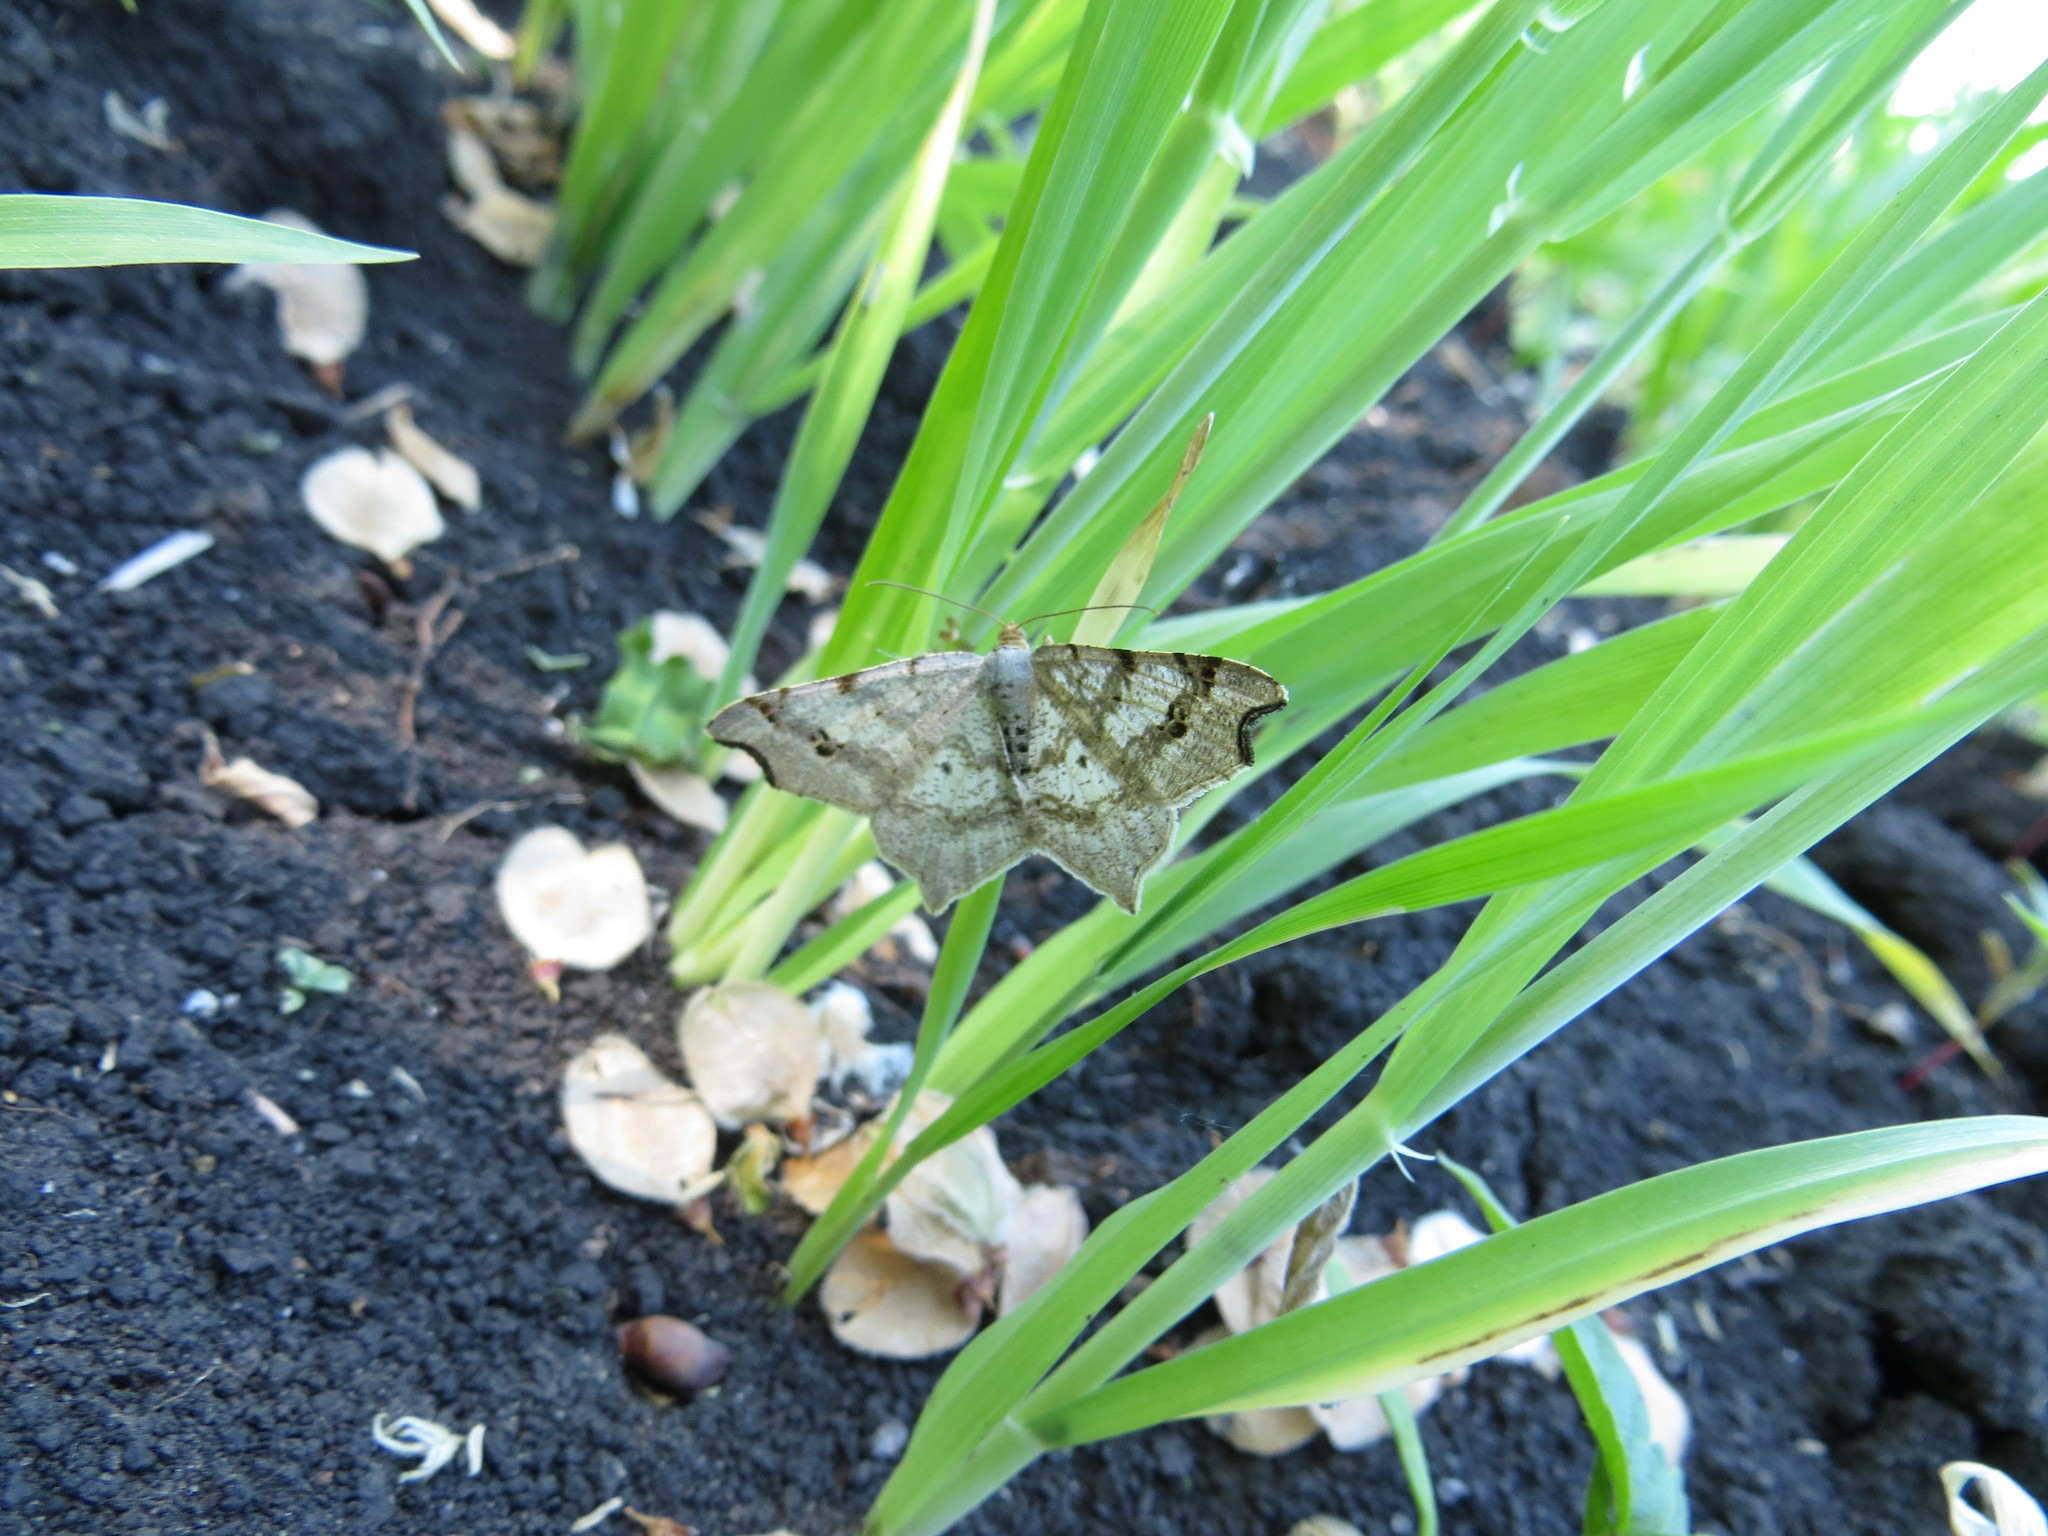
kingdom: Animalia
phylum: Arthropoda
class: Insecta
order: Lepidoptera
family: Geometridae
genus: Macaria
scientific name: Macaria alternata
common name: Sharp-angled peacock
